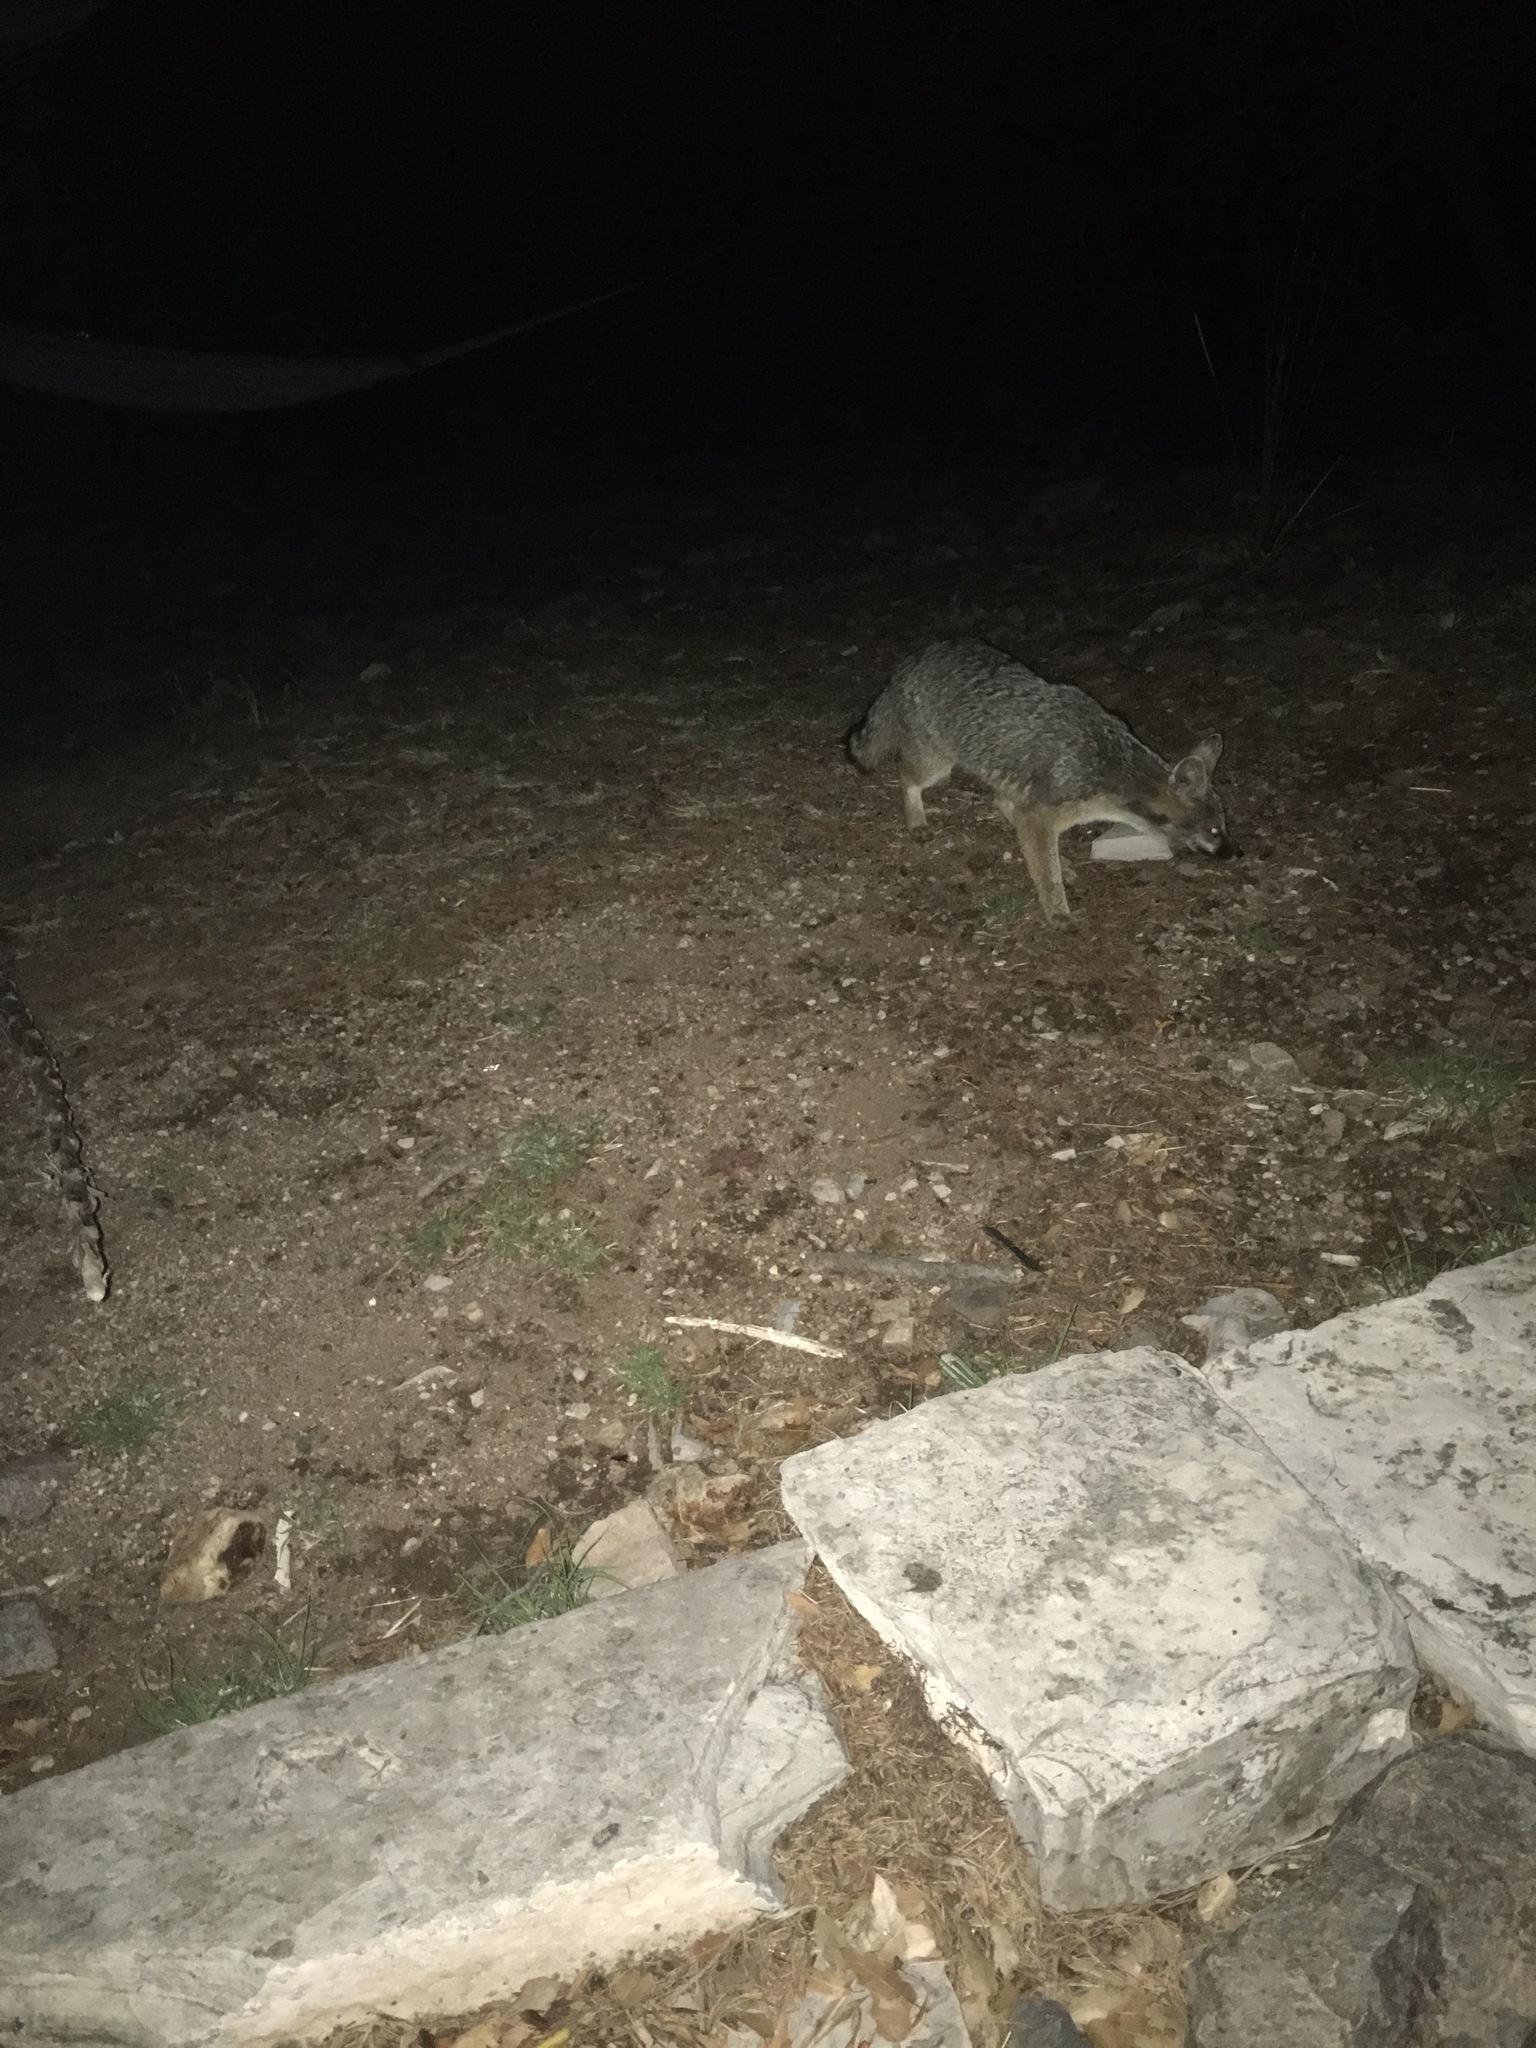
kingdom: Animalia
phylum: Chordata
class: Mammalia
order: Carnivora
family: Canidae
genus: Urocyon
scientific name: Urocyon cinereoargenteus
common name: Gray fox
